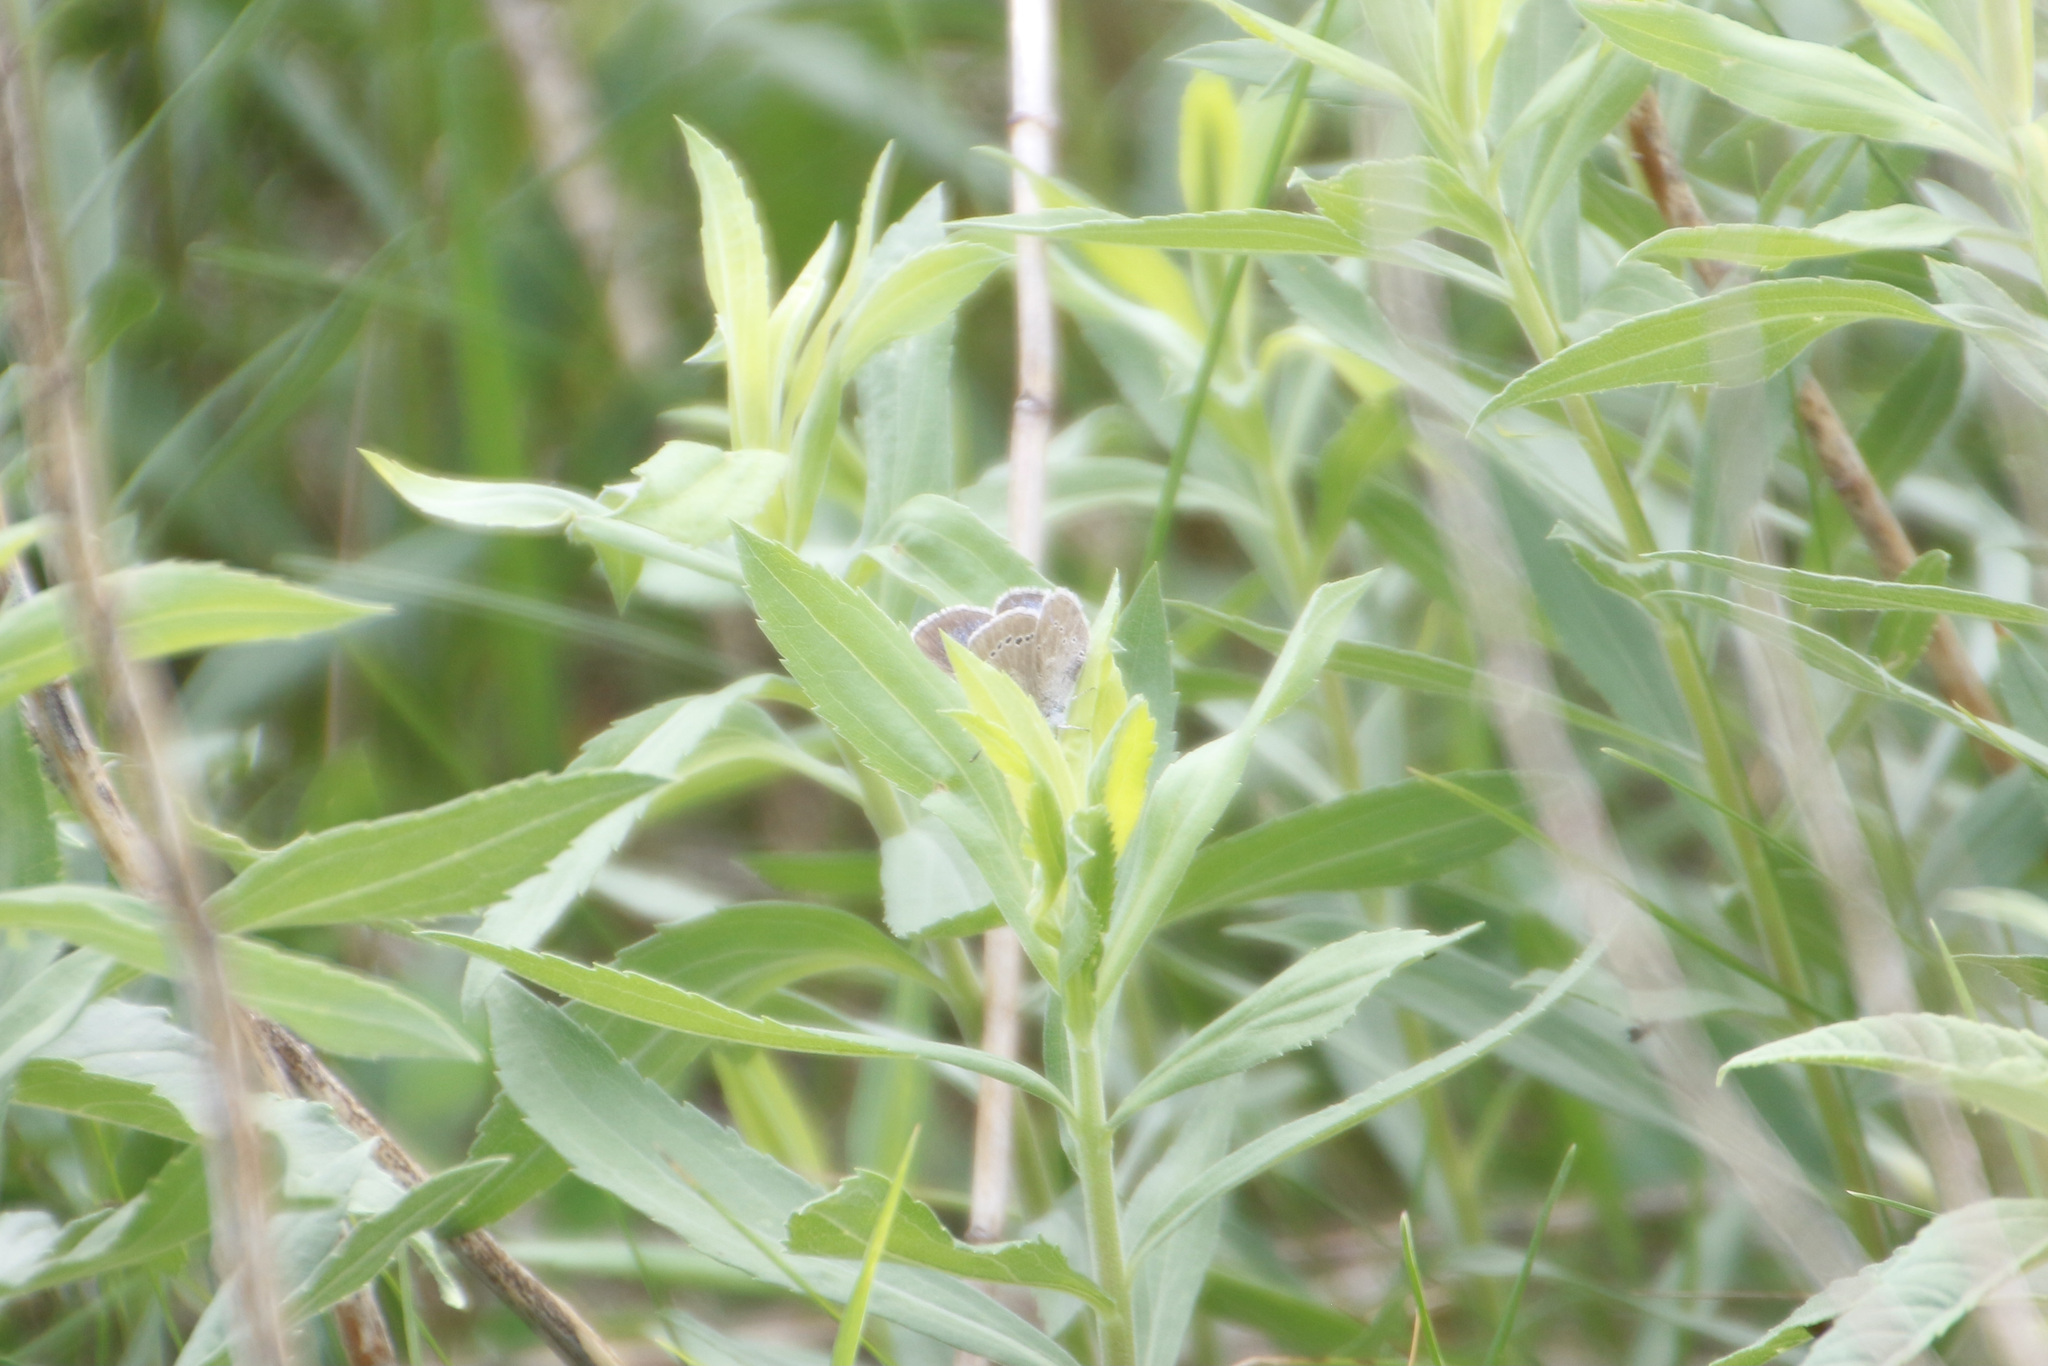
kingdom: Animalia
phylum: Arthropoda
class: Insecta
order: Lepidoptera
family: Lycaenidae
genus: Glaucopsyche
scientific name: Glaucopsyche lygdamus
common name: Silvery blue
